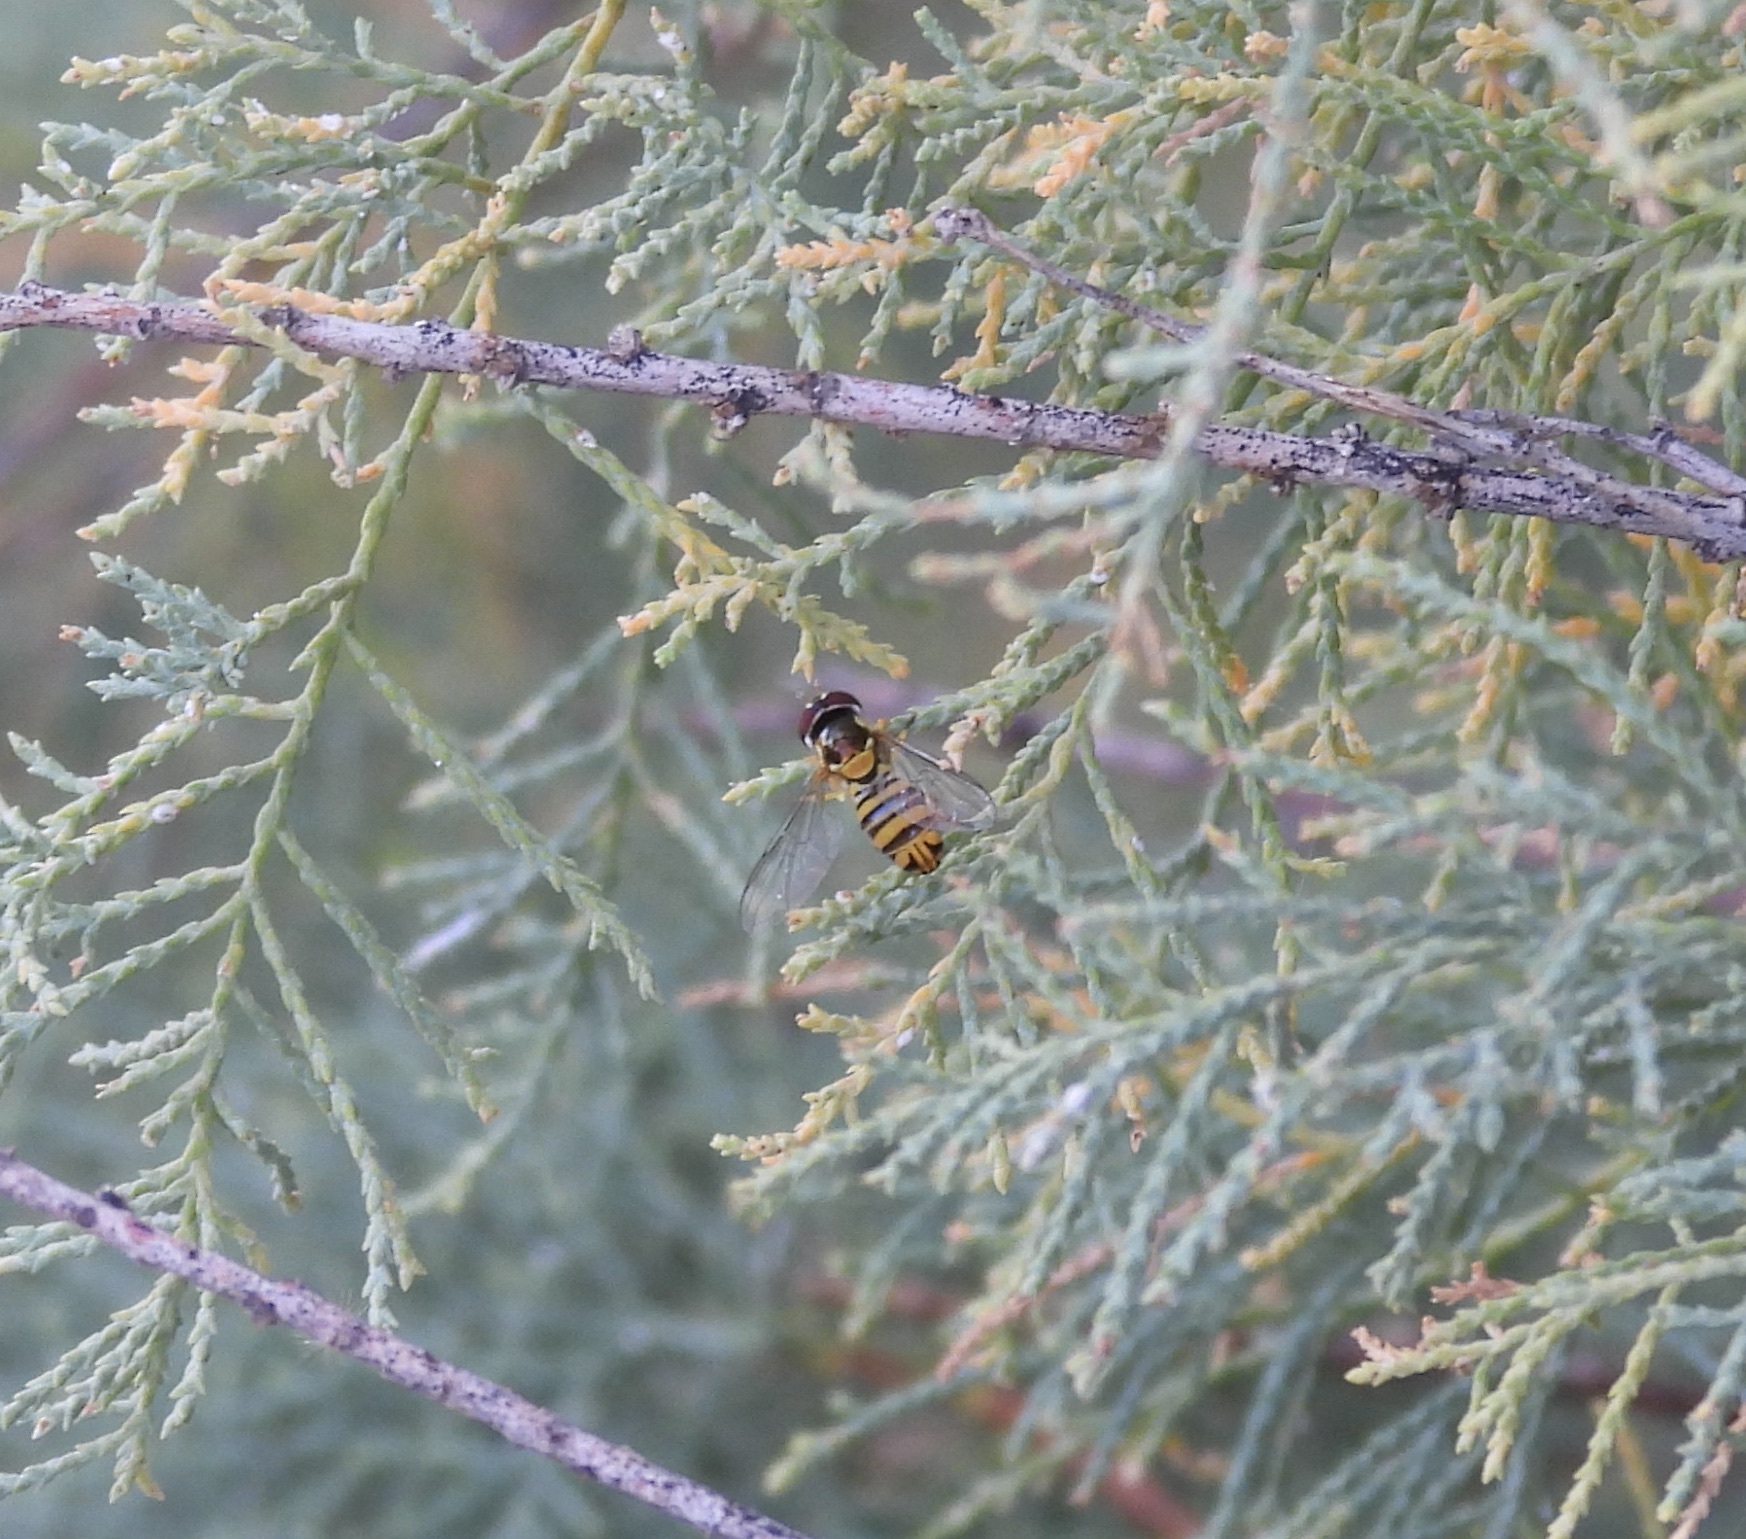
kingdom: Animalia
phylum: Arthropoda
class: Insecta
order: Diptera
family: Syrphidae
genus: Allograpta
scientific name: Allograpta obliqua
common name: Common oblique syrphid
